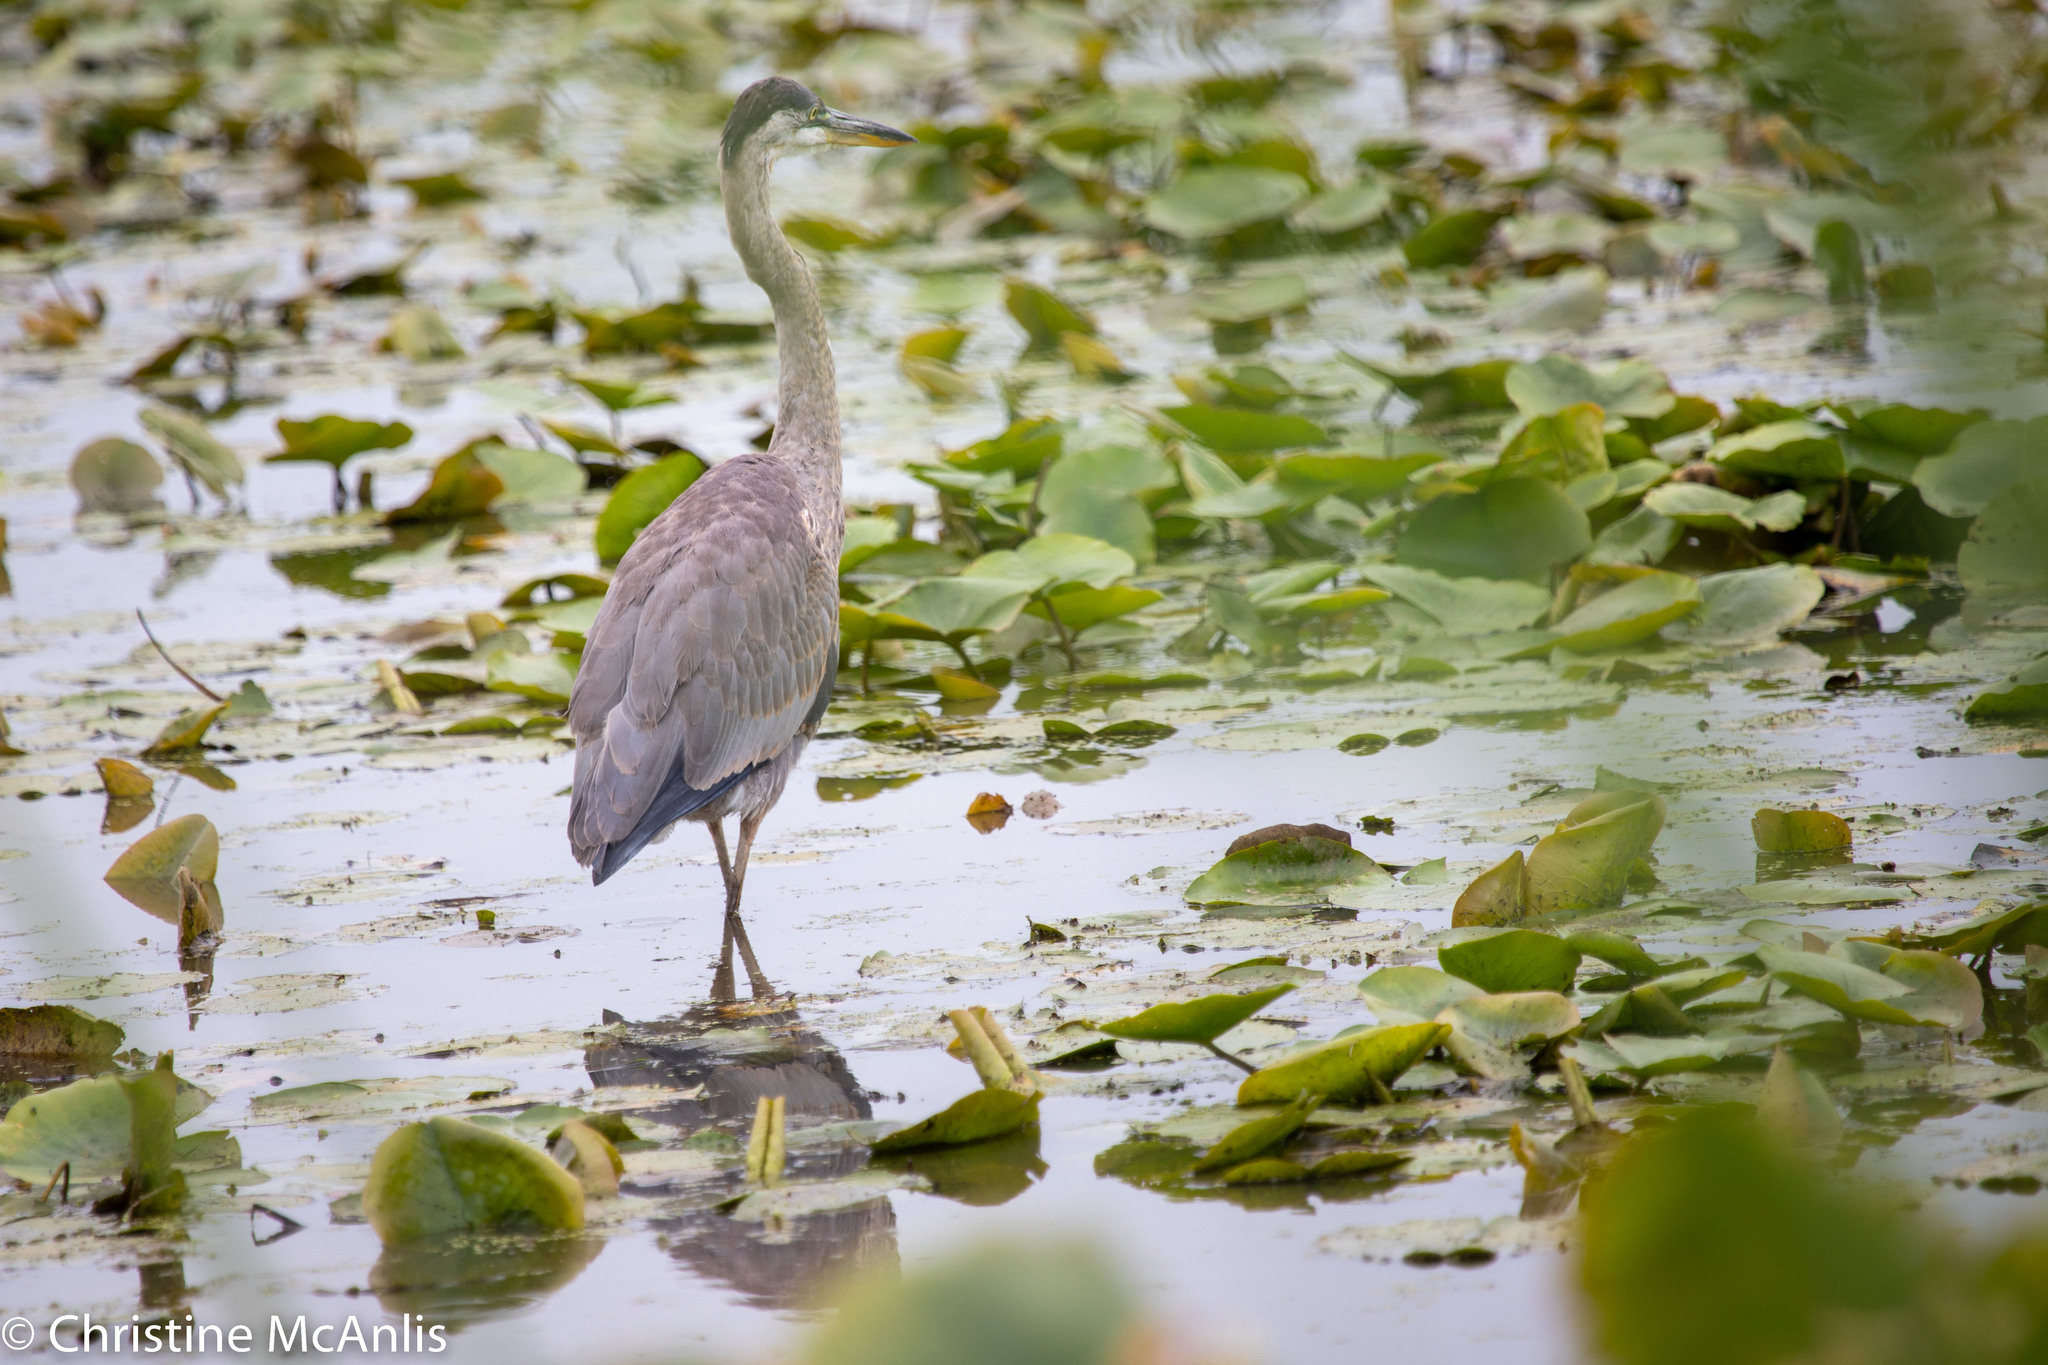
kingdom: Animalia
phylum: Chordata
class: Aves
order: Pelecaniformes
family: Ardeidae
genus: Ardea
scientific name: Ardea herodias
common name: Great blue heron
